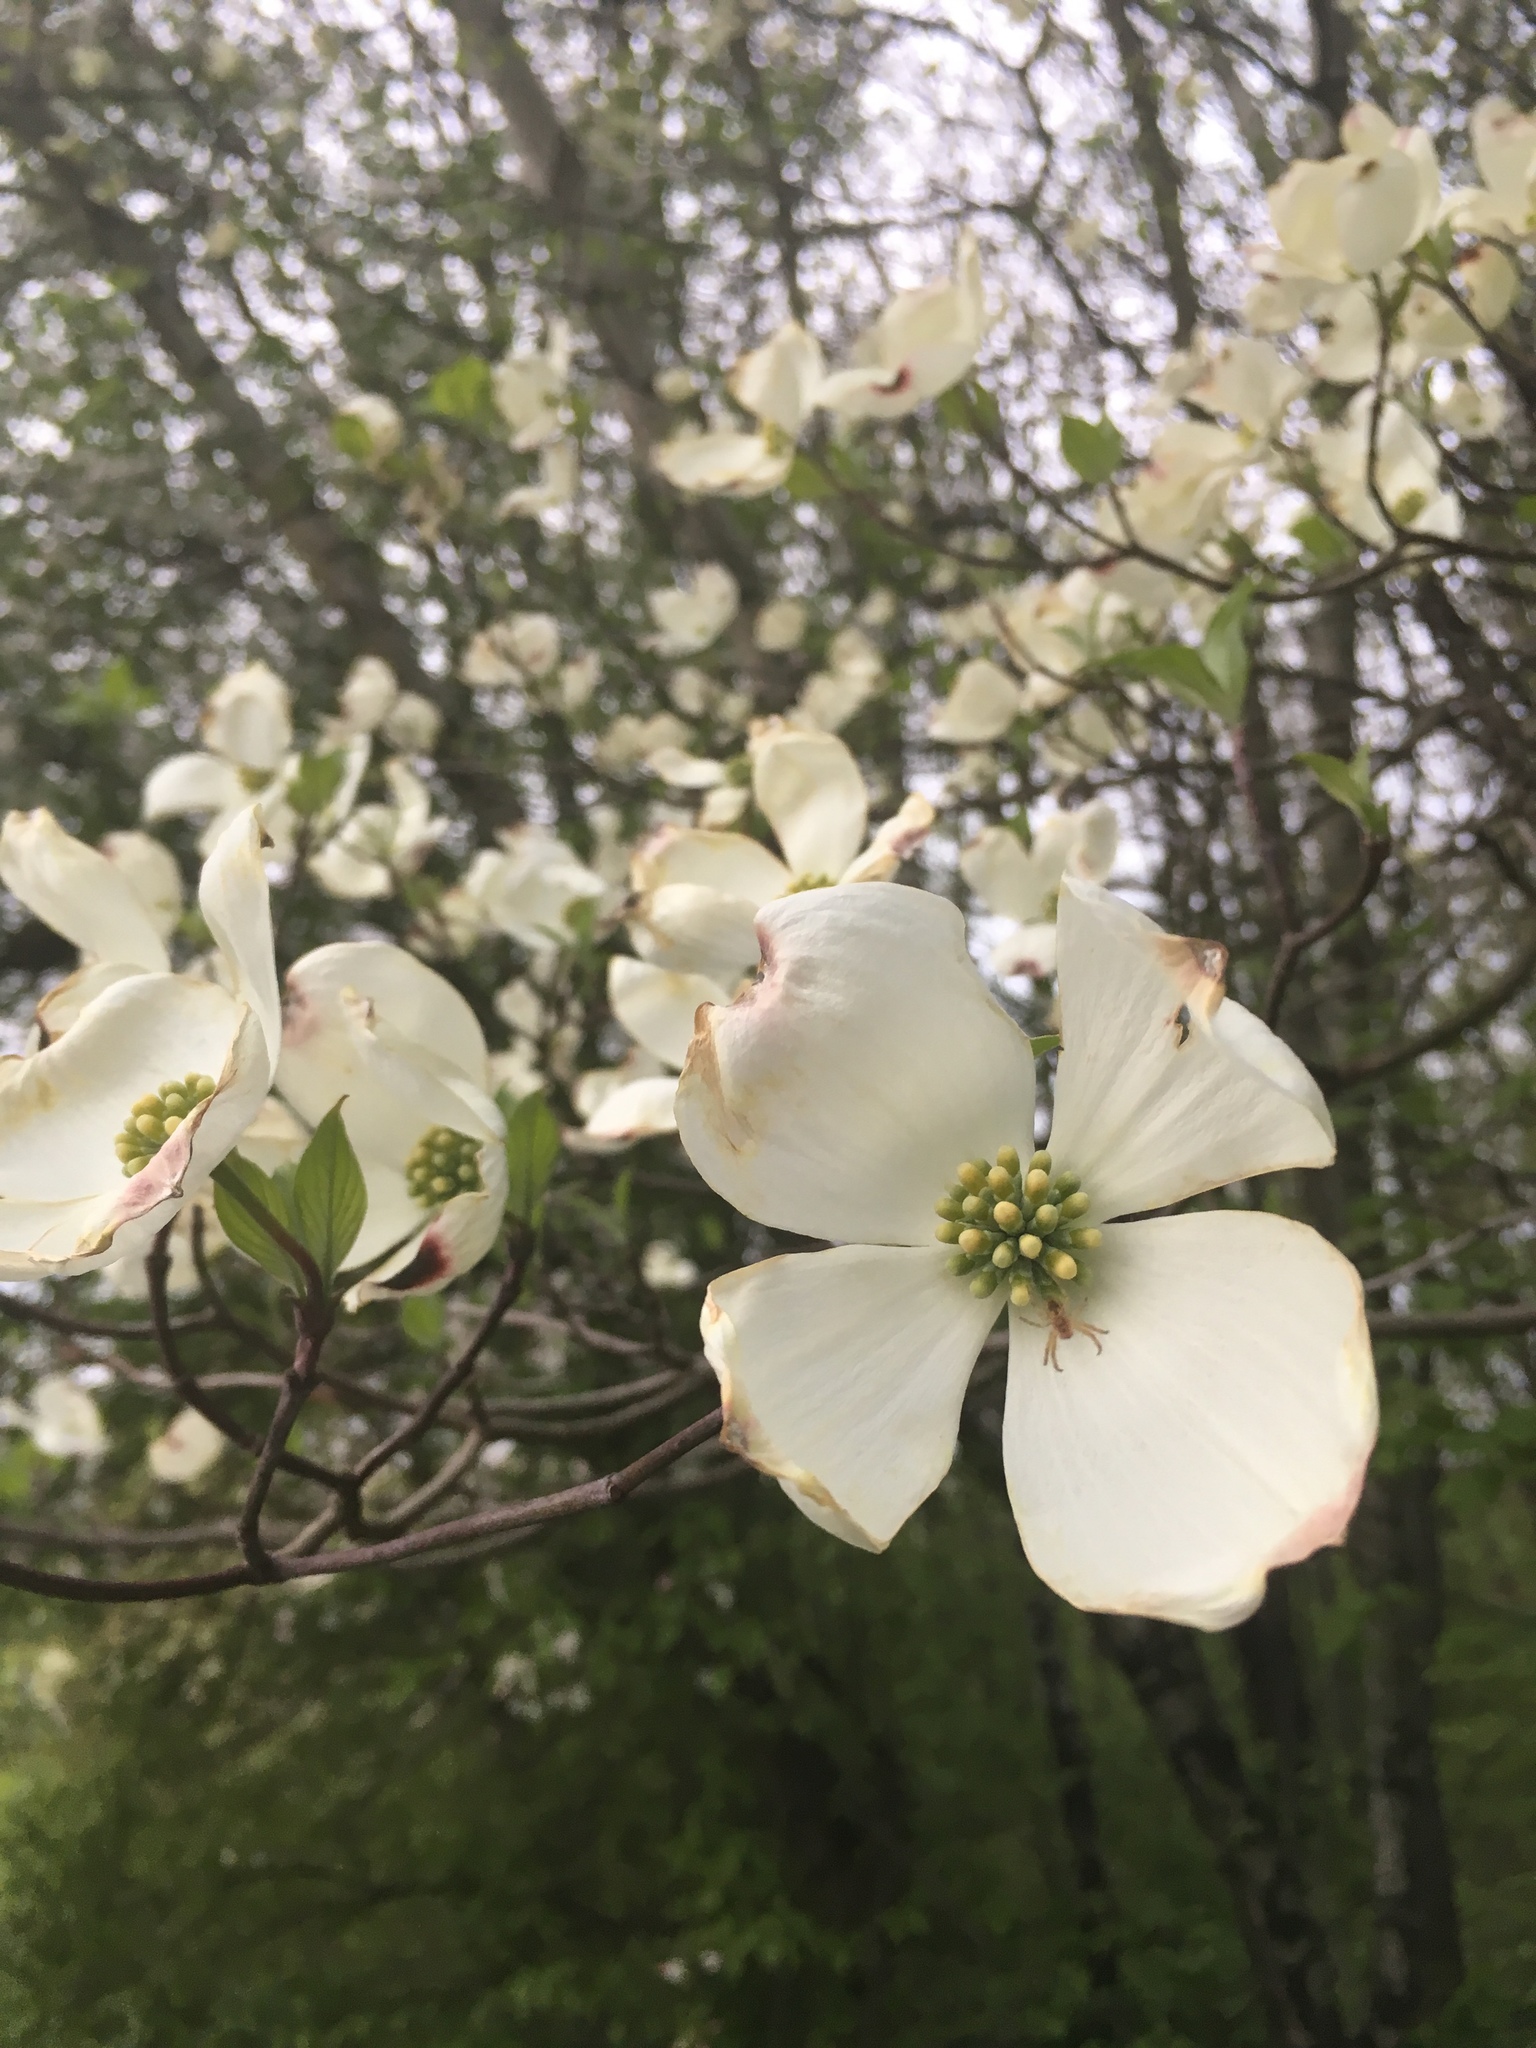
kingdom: Plantae
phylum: Tracheophyta
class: Magnoliopsida
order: Cornales
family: Cornaceae
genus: Cornus
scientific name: Cornus florida
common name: Flowering dogwood
